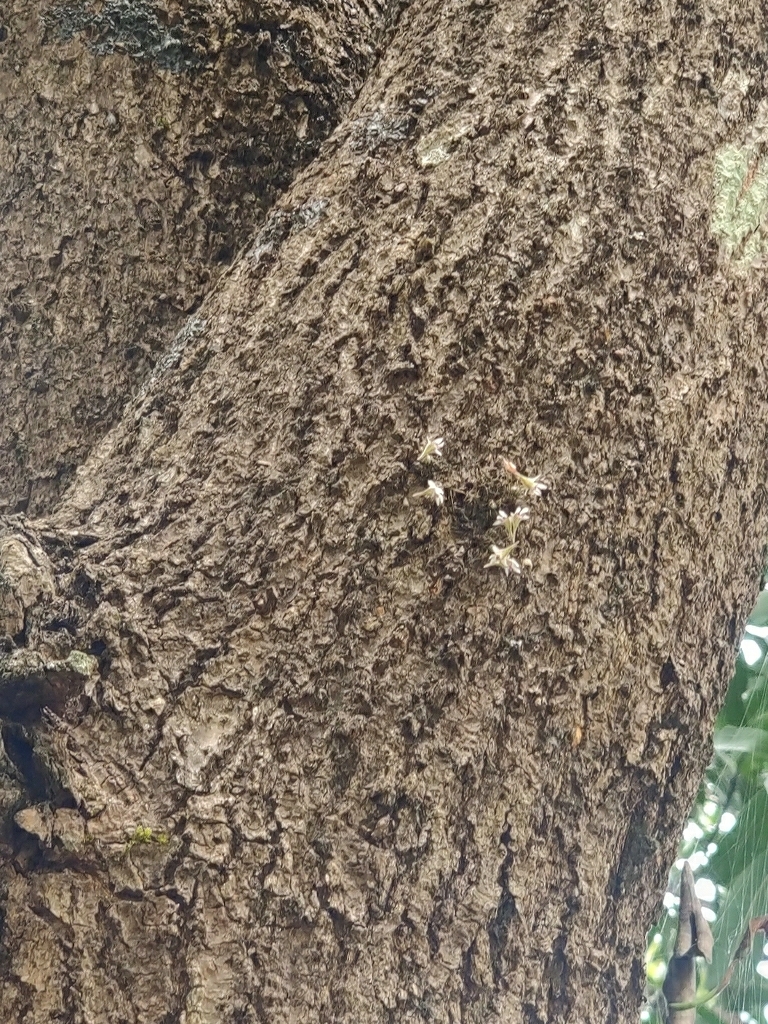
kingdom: Plantae
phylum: Tracheophyta
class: Liliopsida
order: Asparagales
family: Orchidaceae
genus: Dendrobium
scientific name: Dendrobium turbinatum
